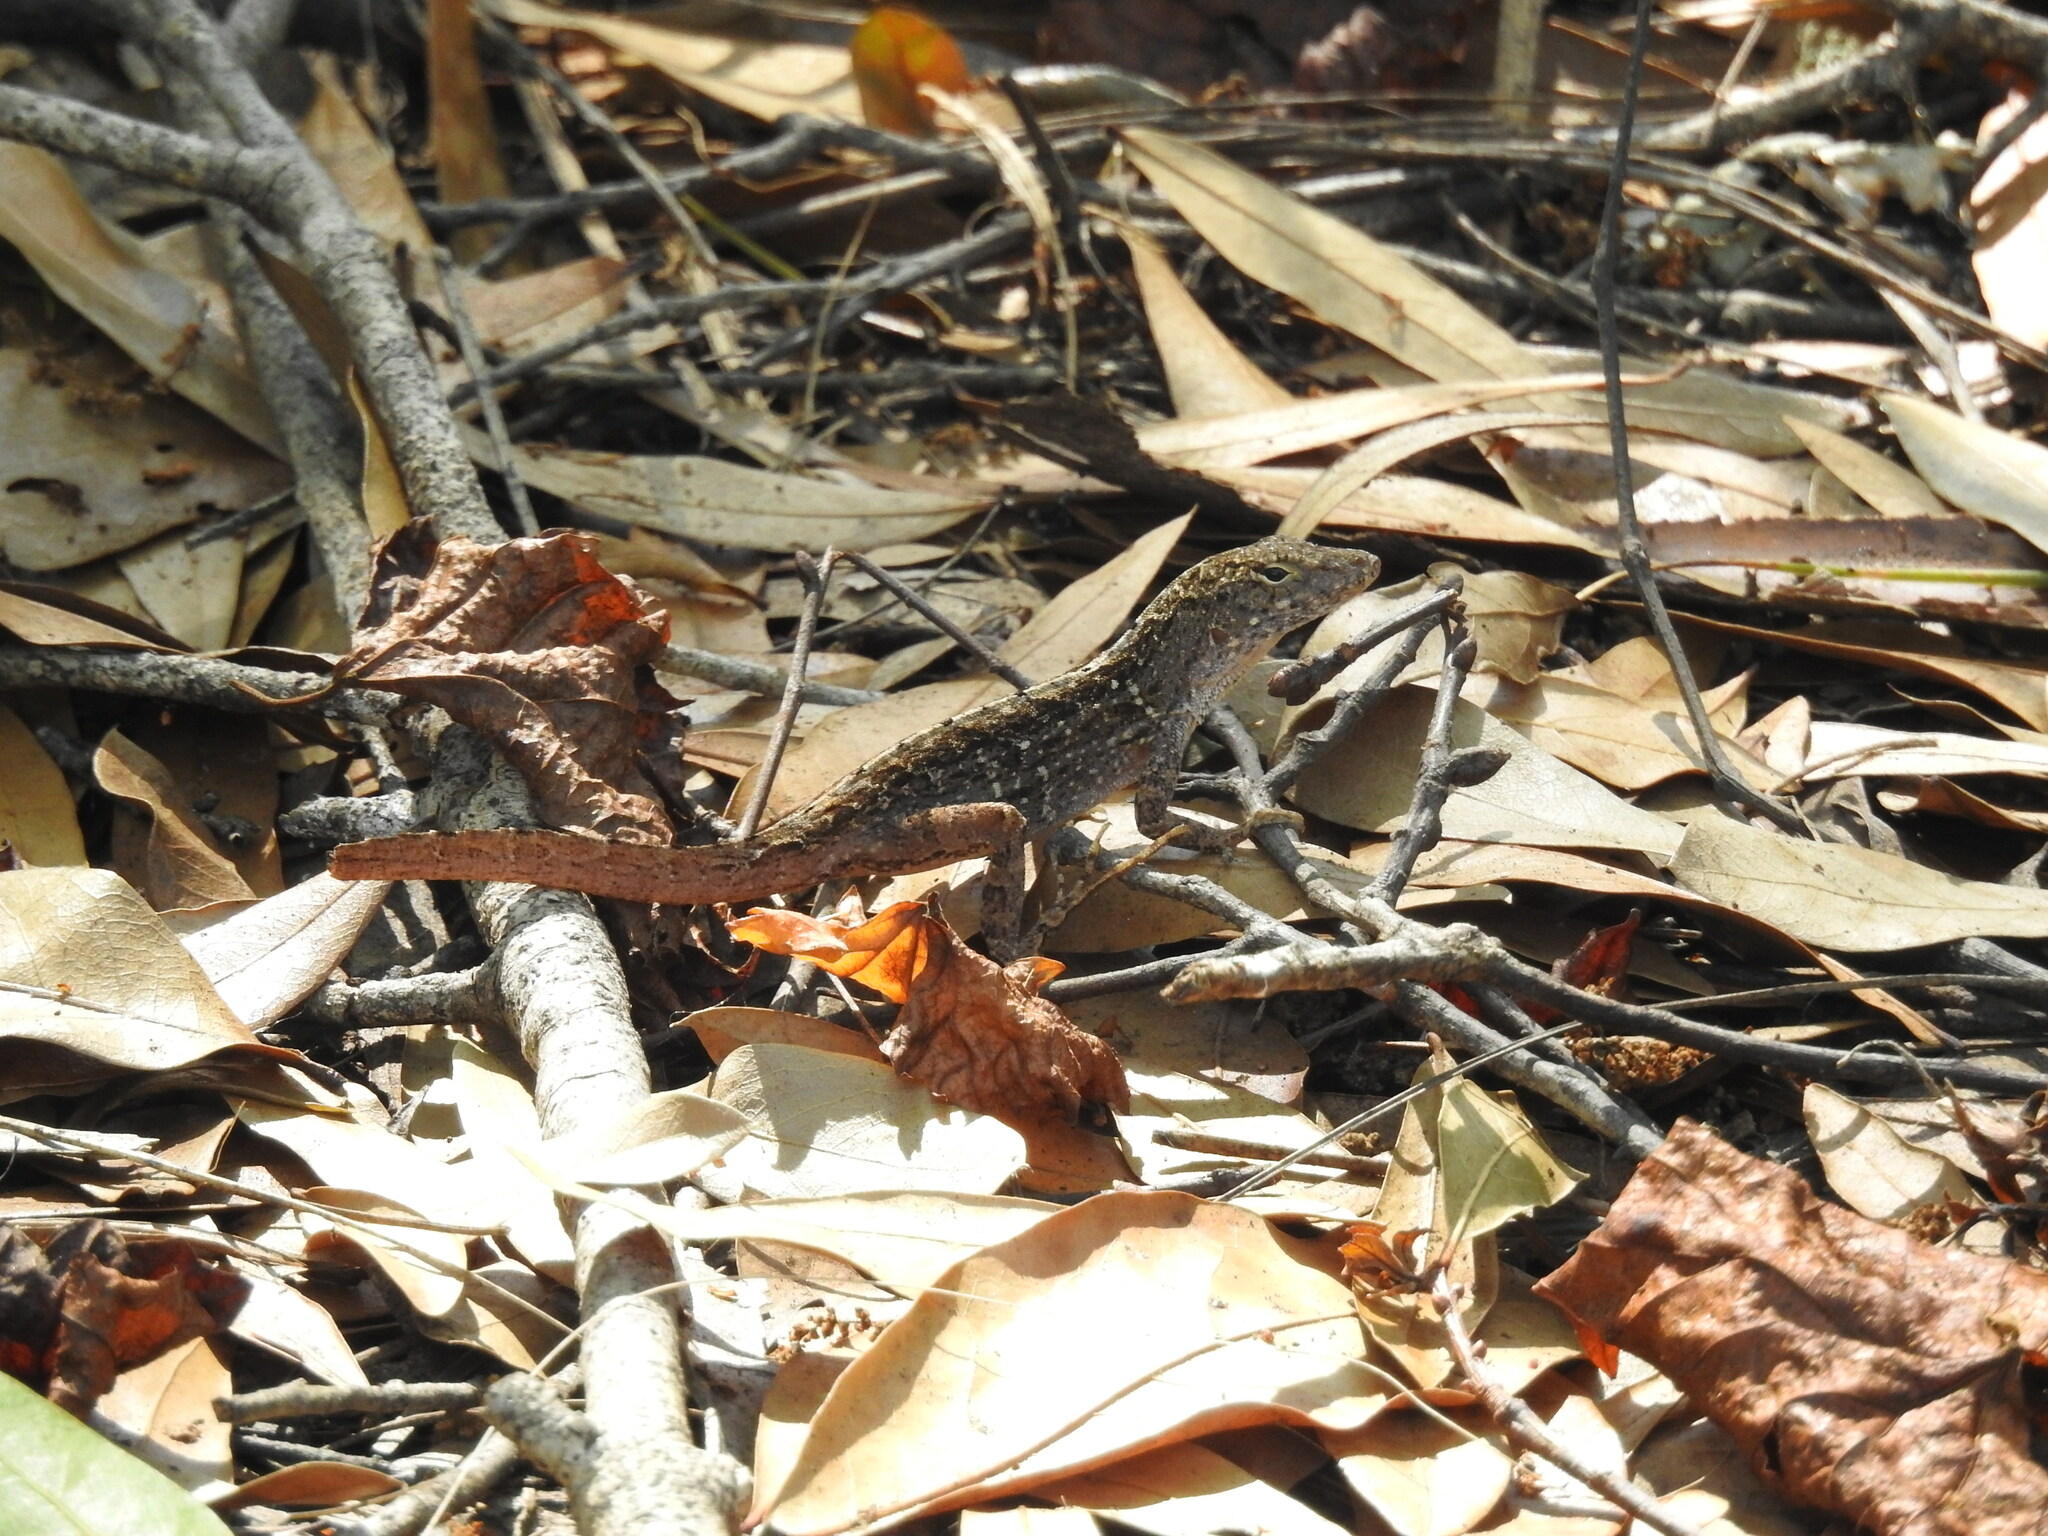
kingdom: Animalia
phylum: Chordata
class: Squamata
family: Dactyloidae
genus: Anolis
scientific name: Anolis sagrei
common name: Brown anole
